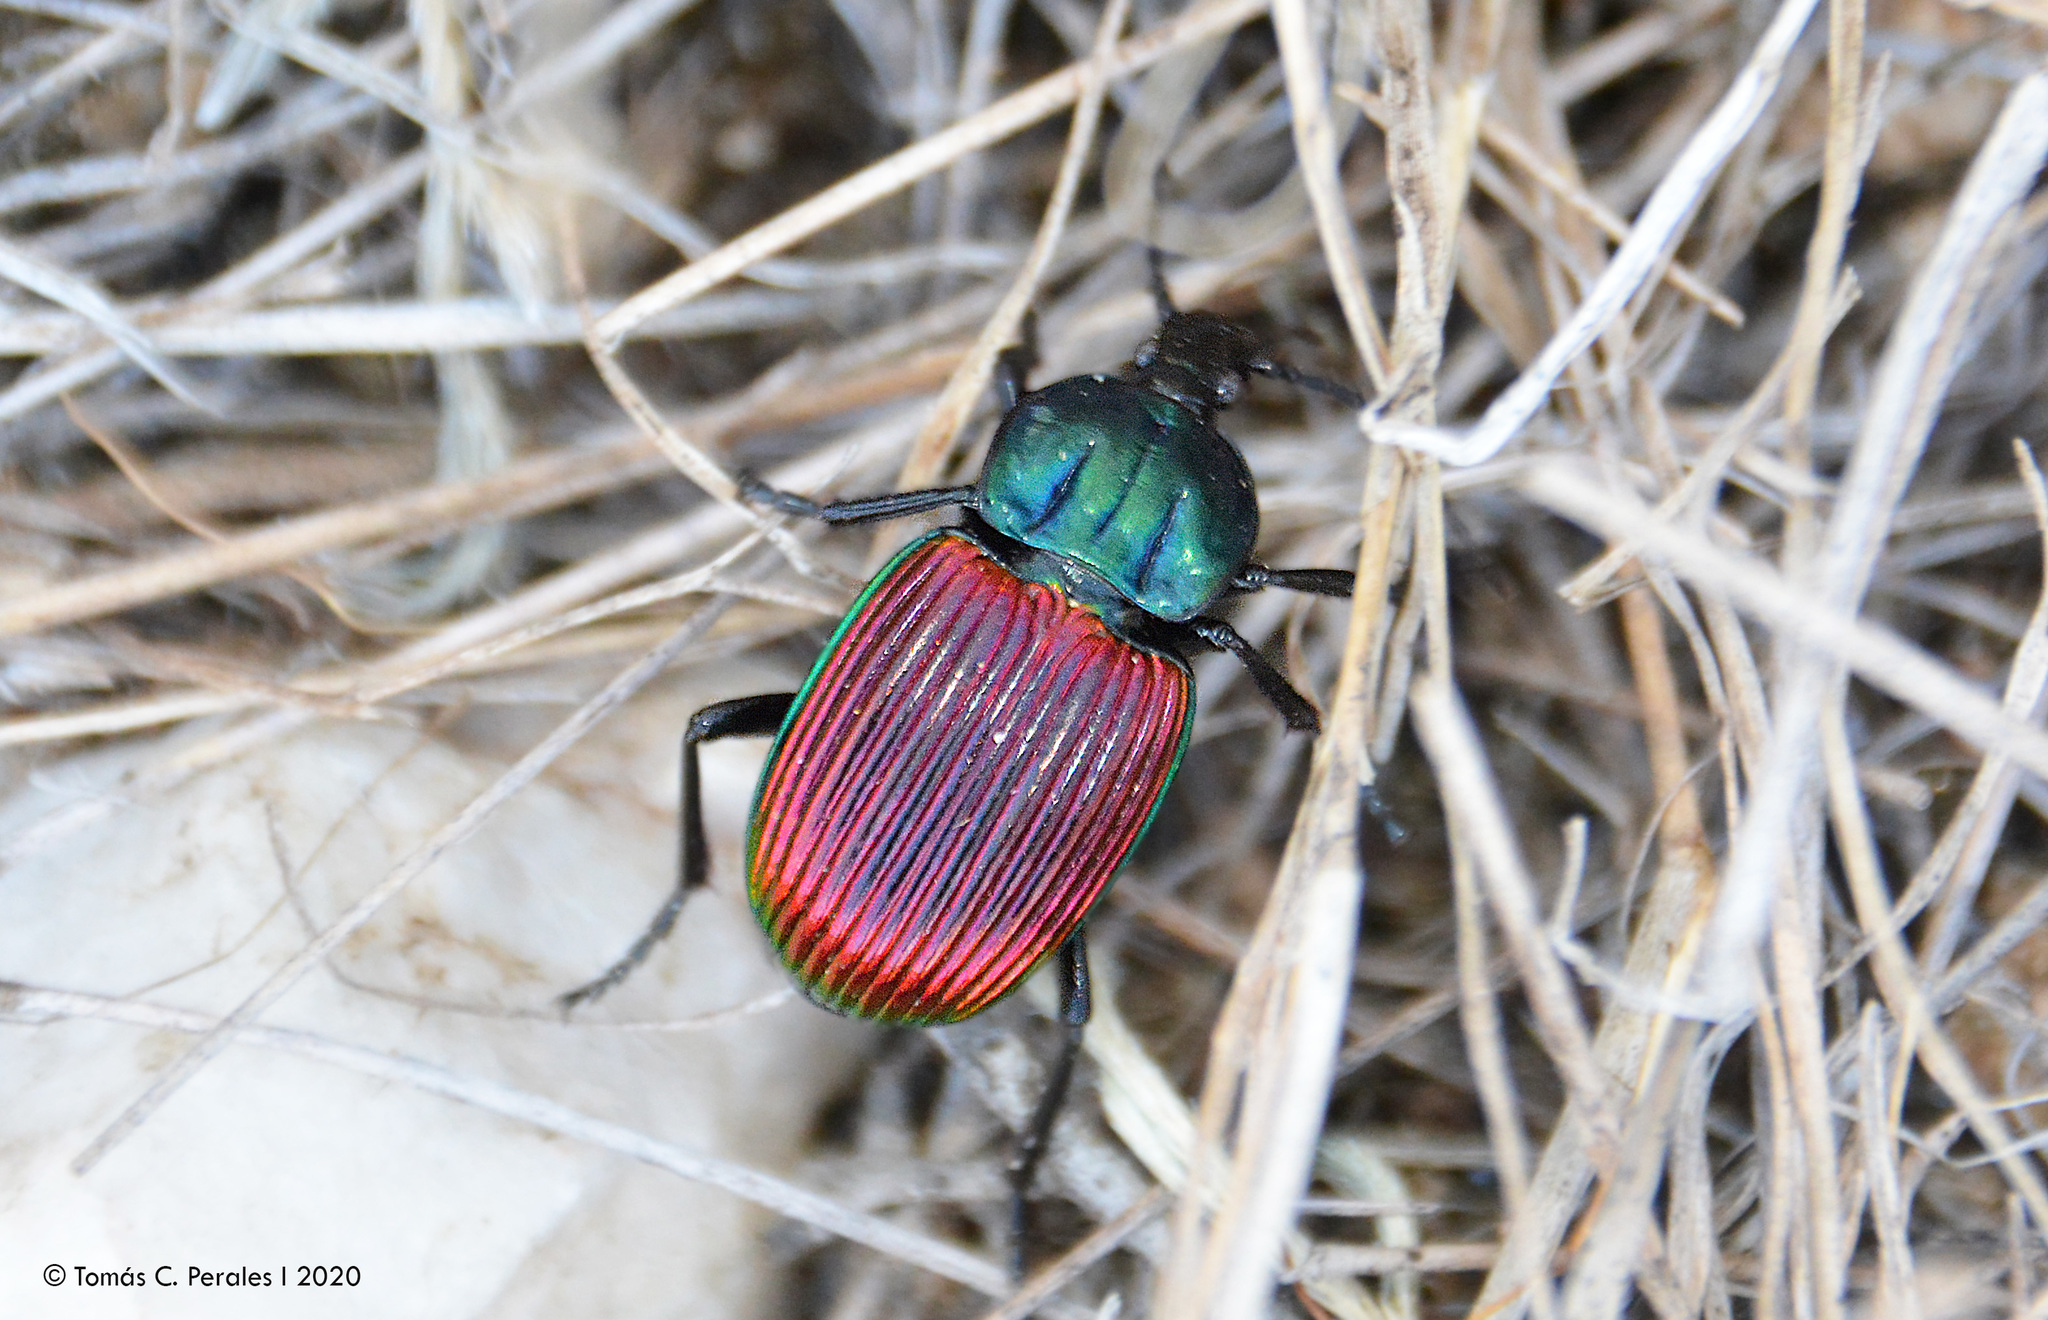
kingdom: Animalia
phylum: Arthropoda
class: Insecta
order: Coleoptera
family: Carabidae
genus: Brachygnathus
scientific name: Brachygnathus festivus
